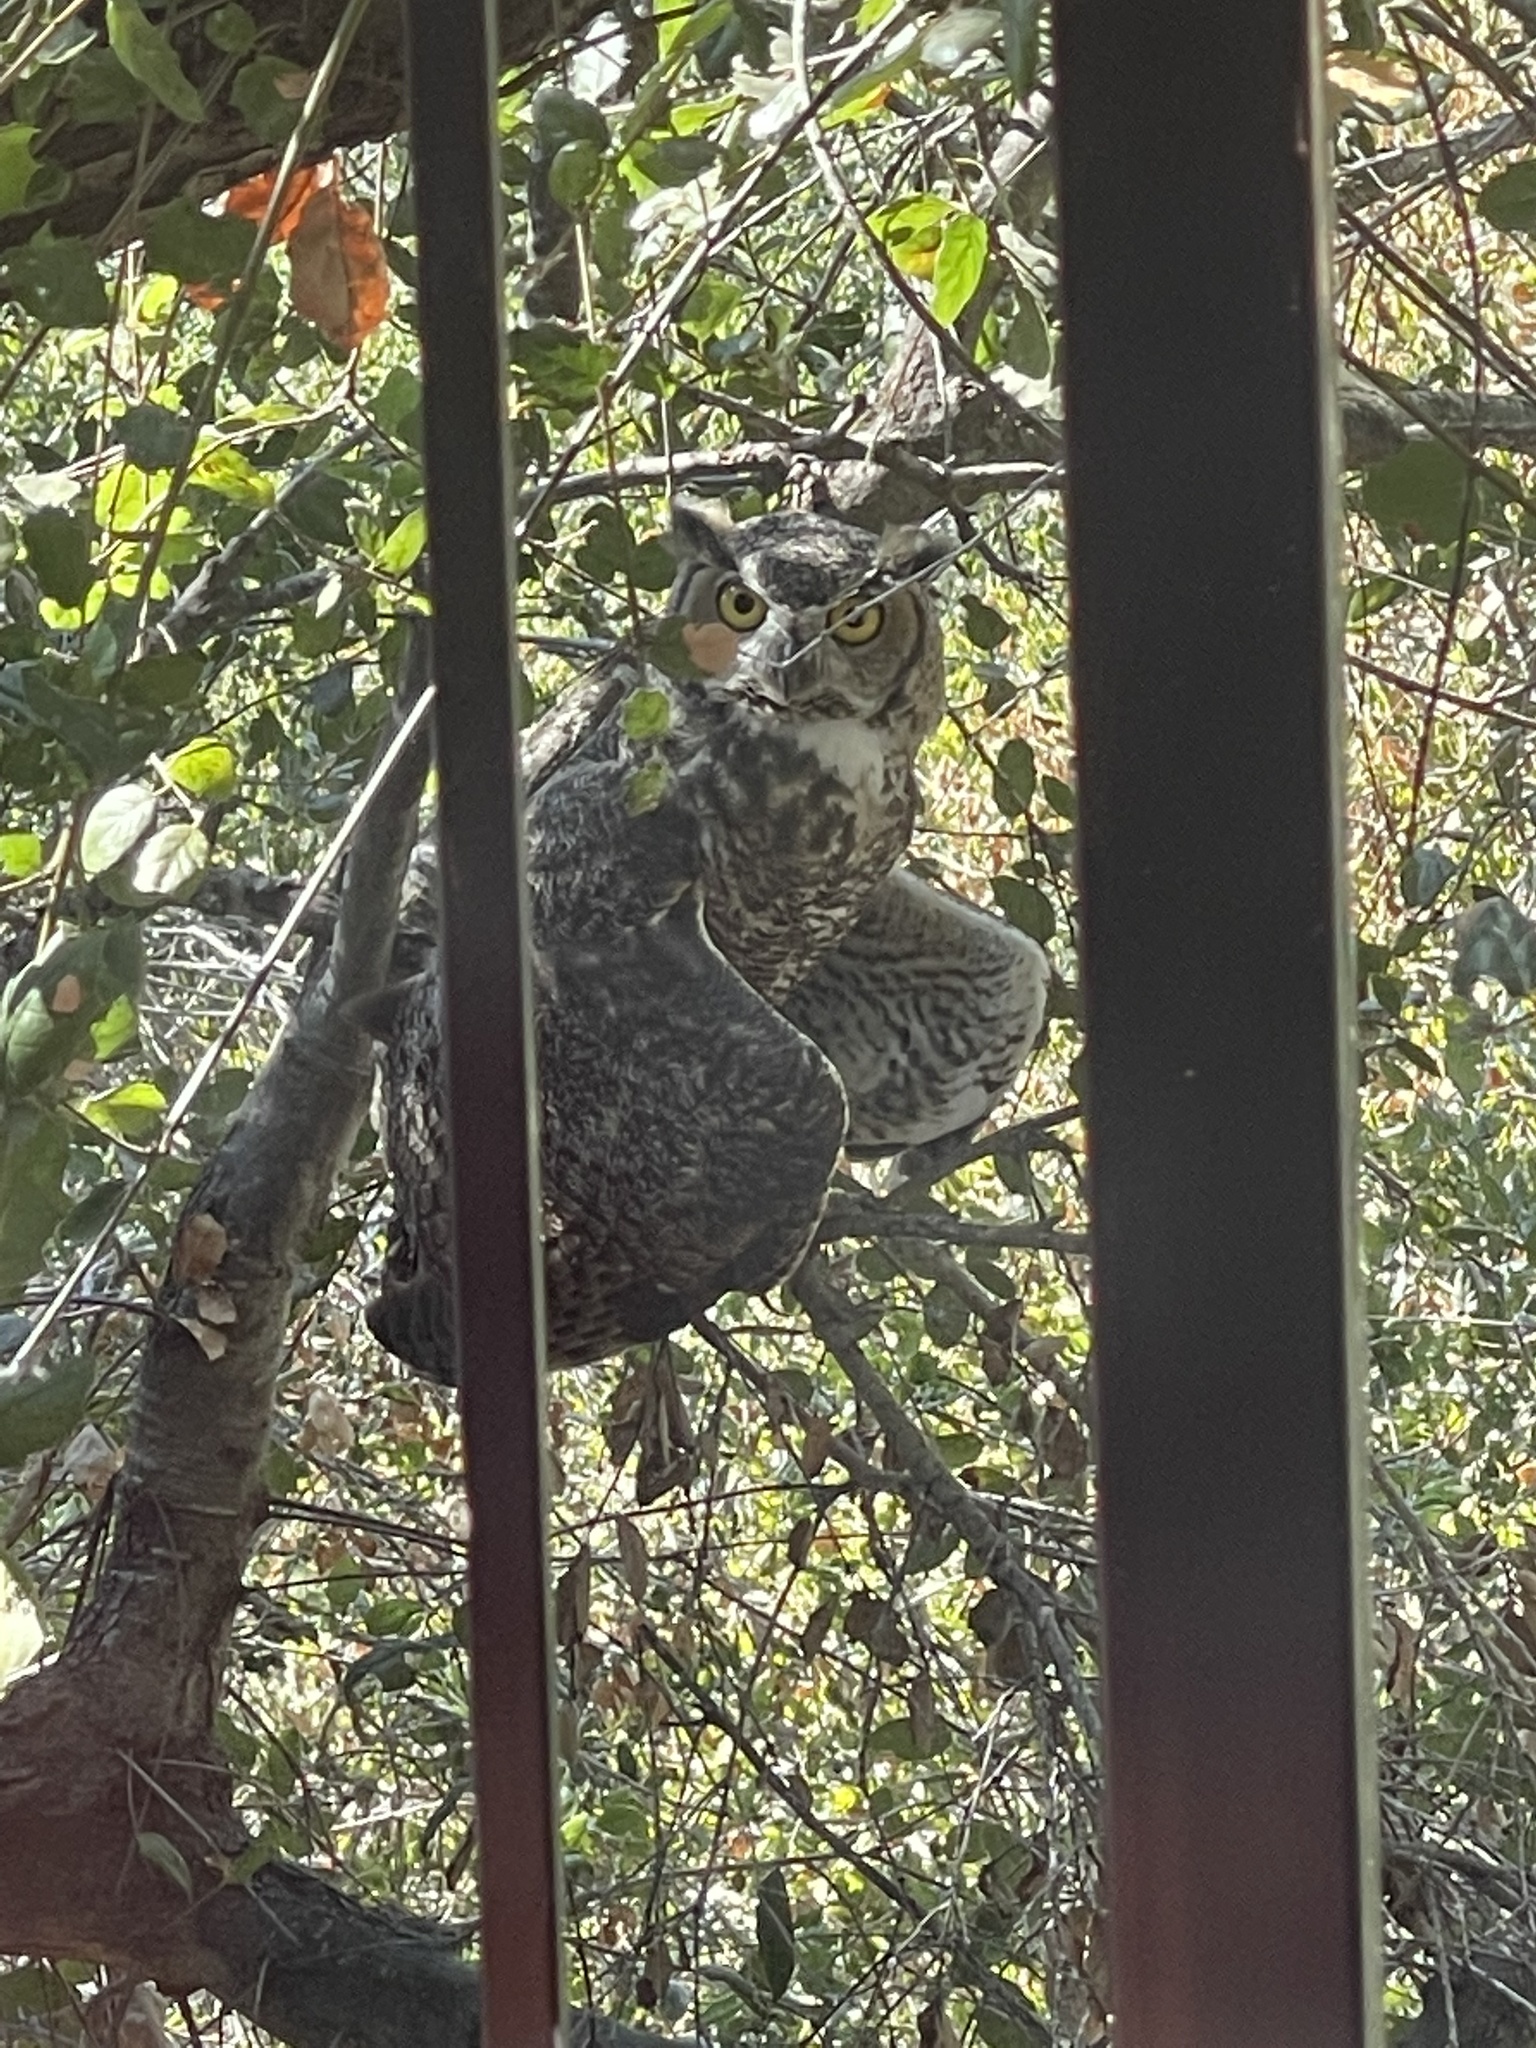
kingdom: Animalia
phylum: Chordata
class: Aves
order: Strigiformes
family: Strigidae
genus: Bubo
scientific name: Bubo virginianus
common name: Great horned owl
